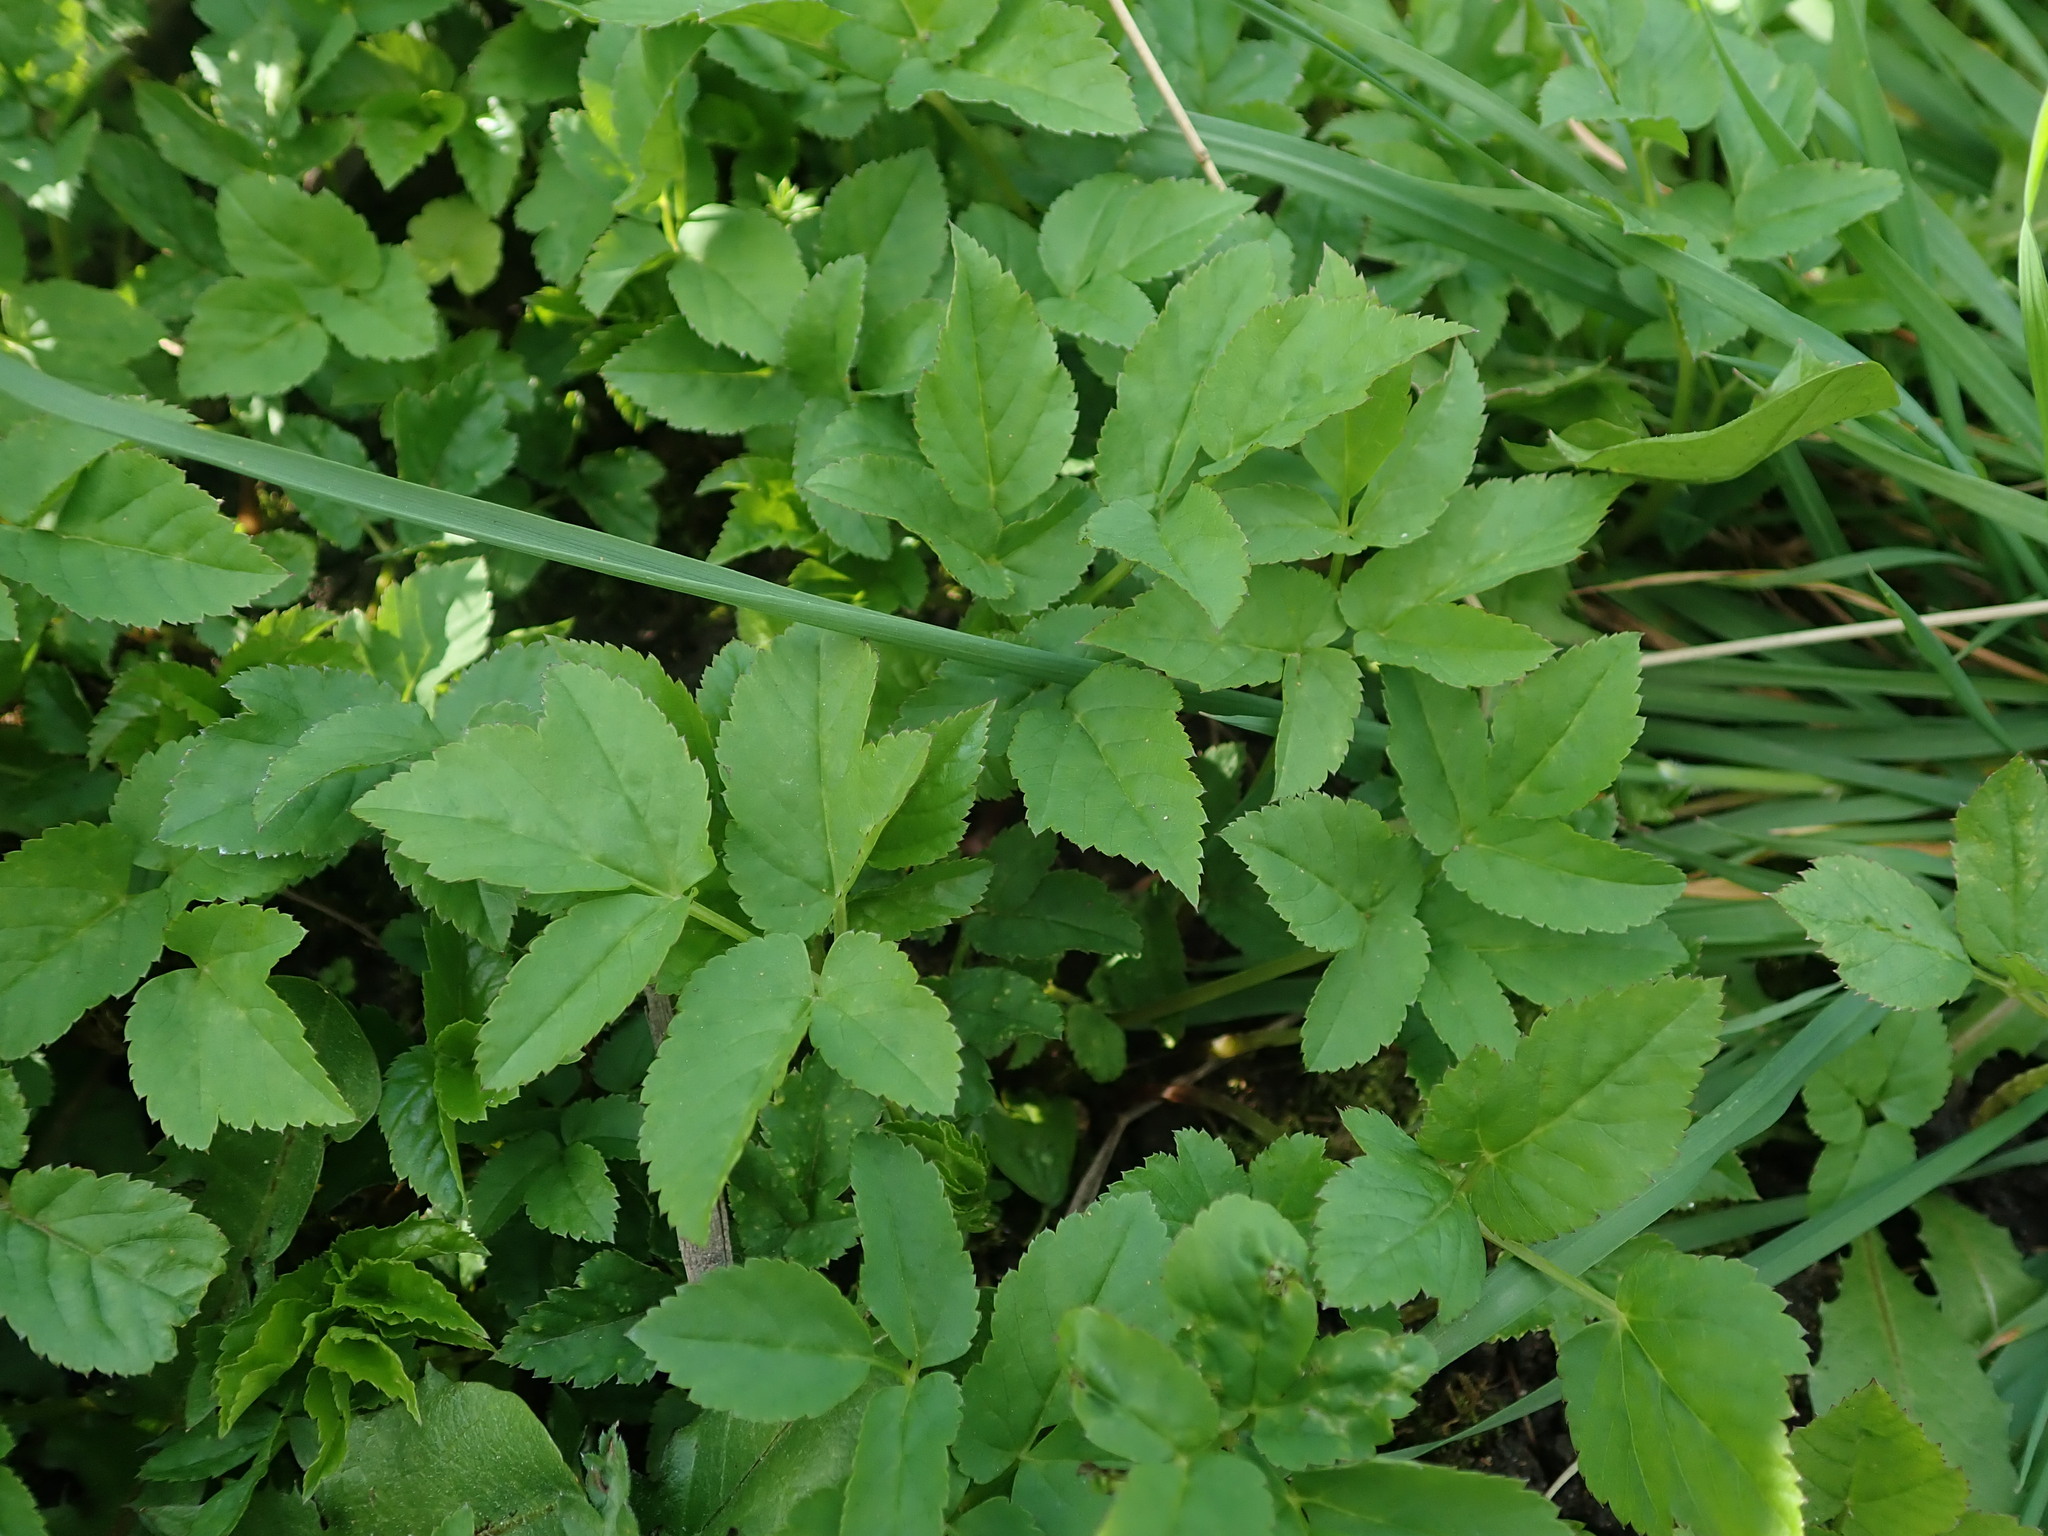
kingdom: Plantae
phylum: Tracheophyta
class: Magnoliopsida
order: Apiales
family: Apiaceae
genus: Aegopodium
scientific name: Aegopodium podagraria
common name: Ground-elder
